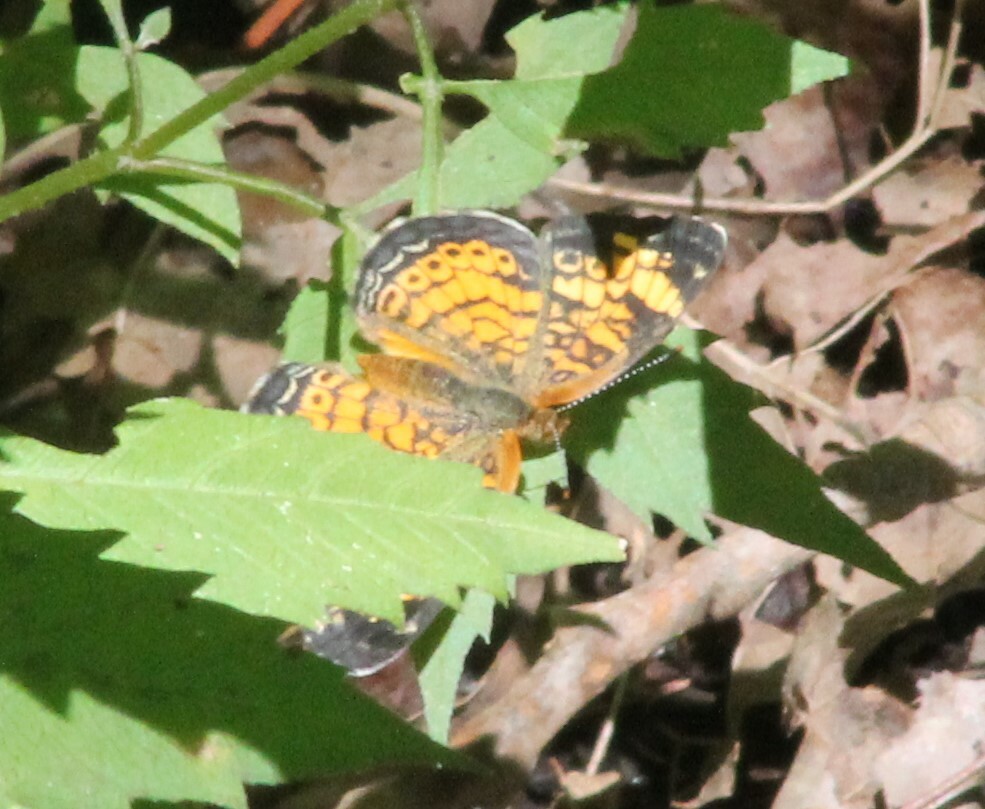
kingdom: Animalia
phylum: Arthropoda
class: Insecta
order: Lepidoptera
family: Nymphalidae
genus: Phyciodes
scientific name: Phyciodes tharos
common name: Pearl crescent
